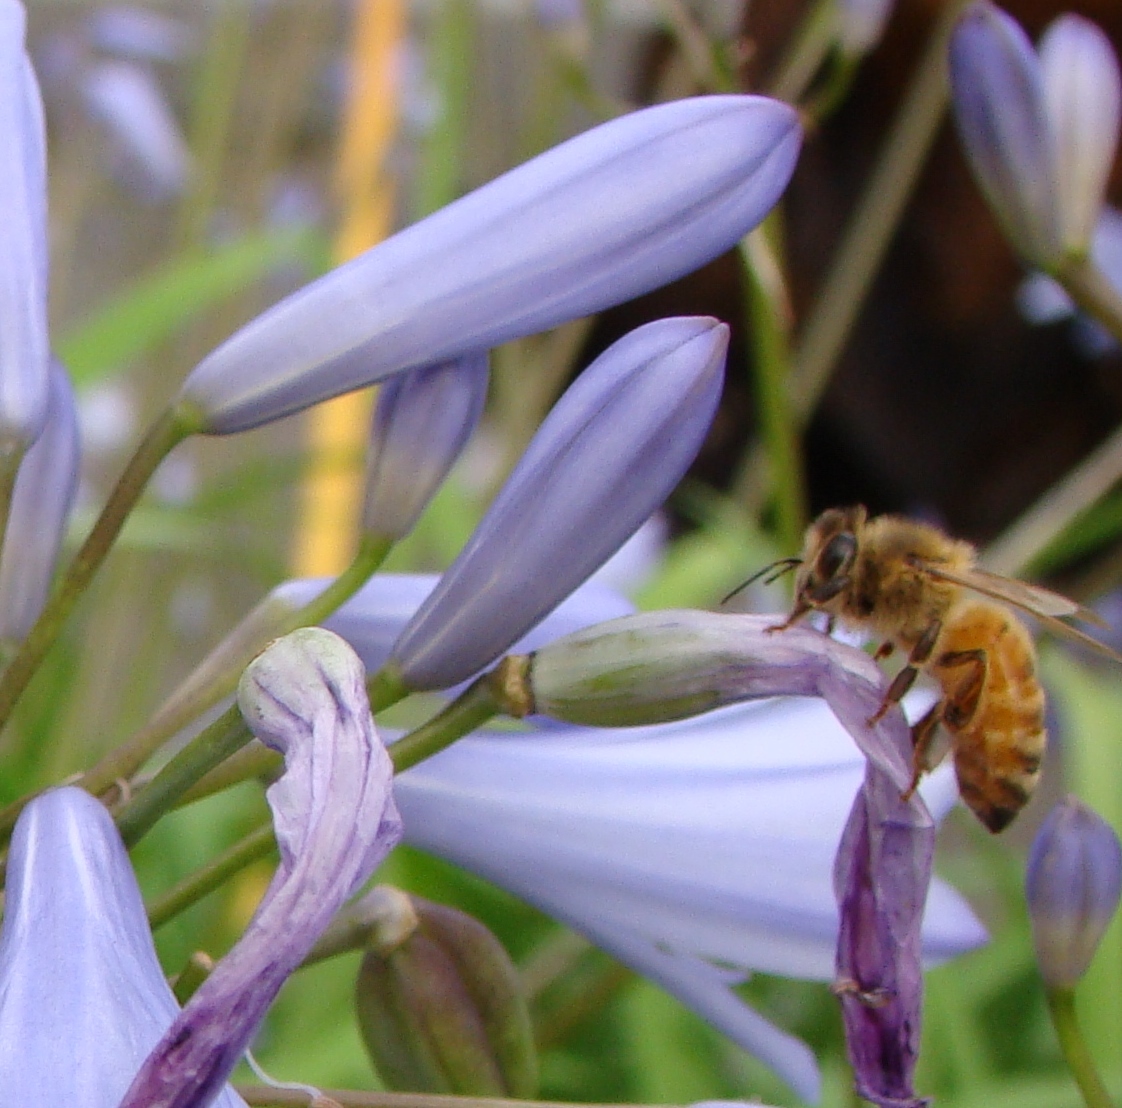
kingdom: Animalia
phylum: Arthropoda
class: Insecta
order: Hymenoptera
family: Apidae
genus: Apis
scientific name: Apis mellifera
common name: Honey bee
